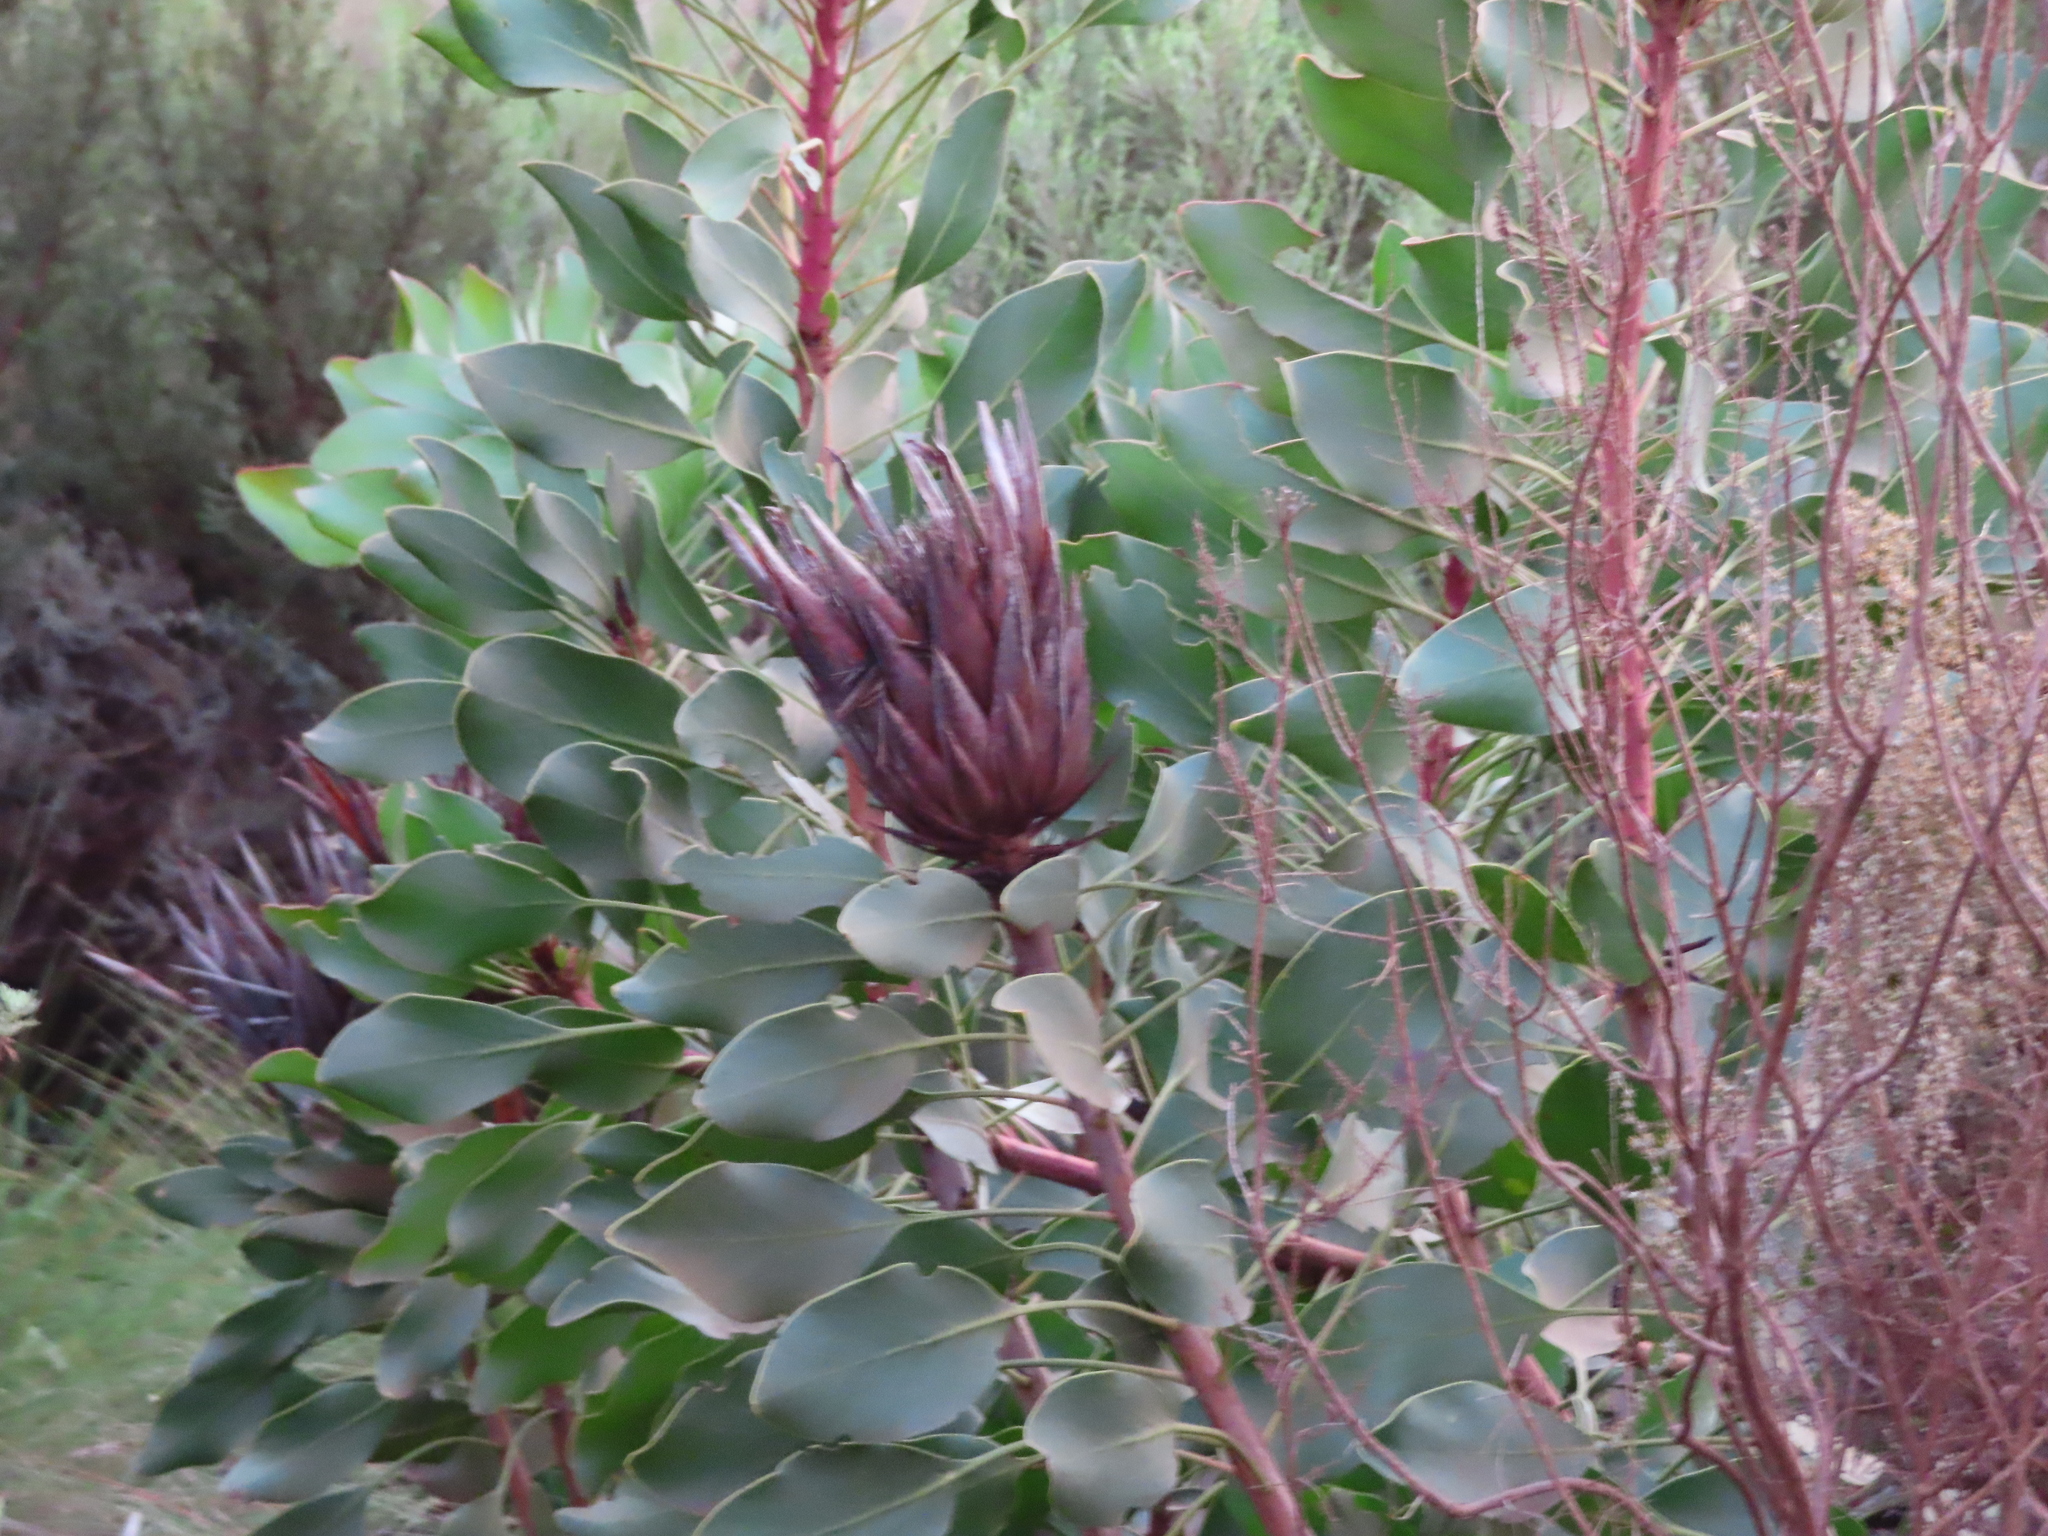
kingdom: Plantae
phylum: Tracheophyta
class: Magnoliopsida
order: Proteales
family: Proteaceae
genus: Protea
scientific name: Protea cynaroides
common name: King protea
